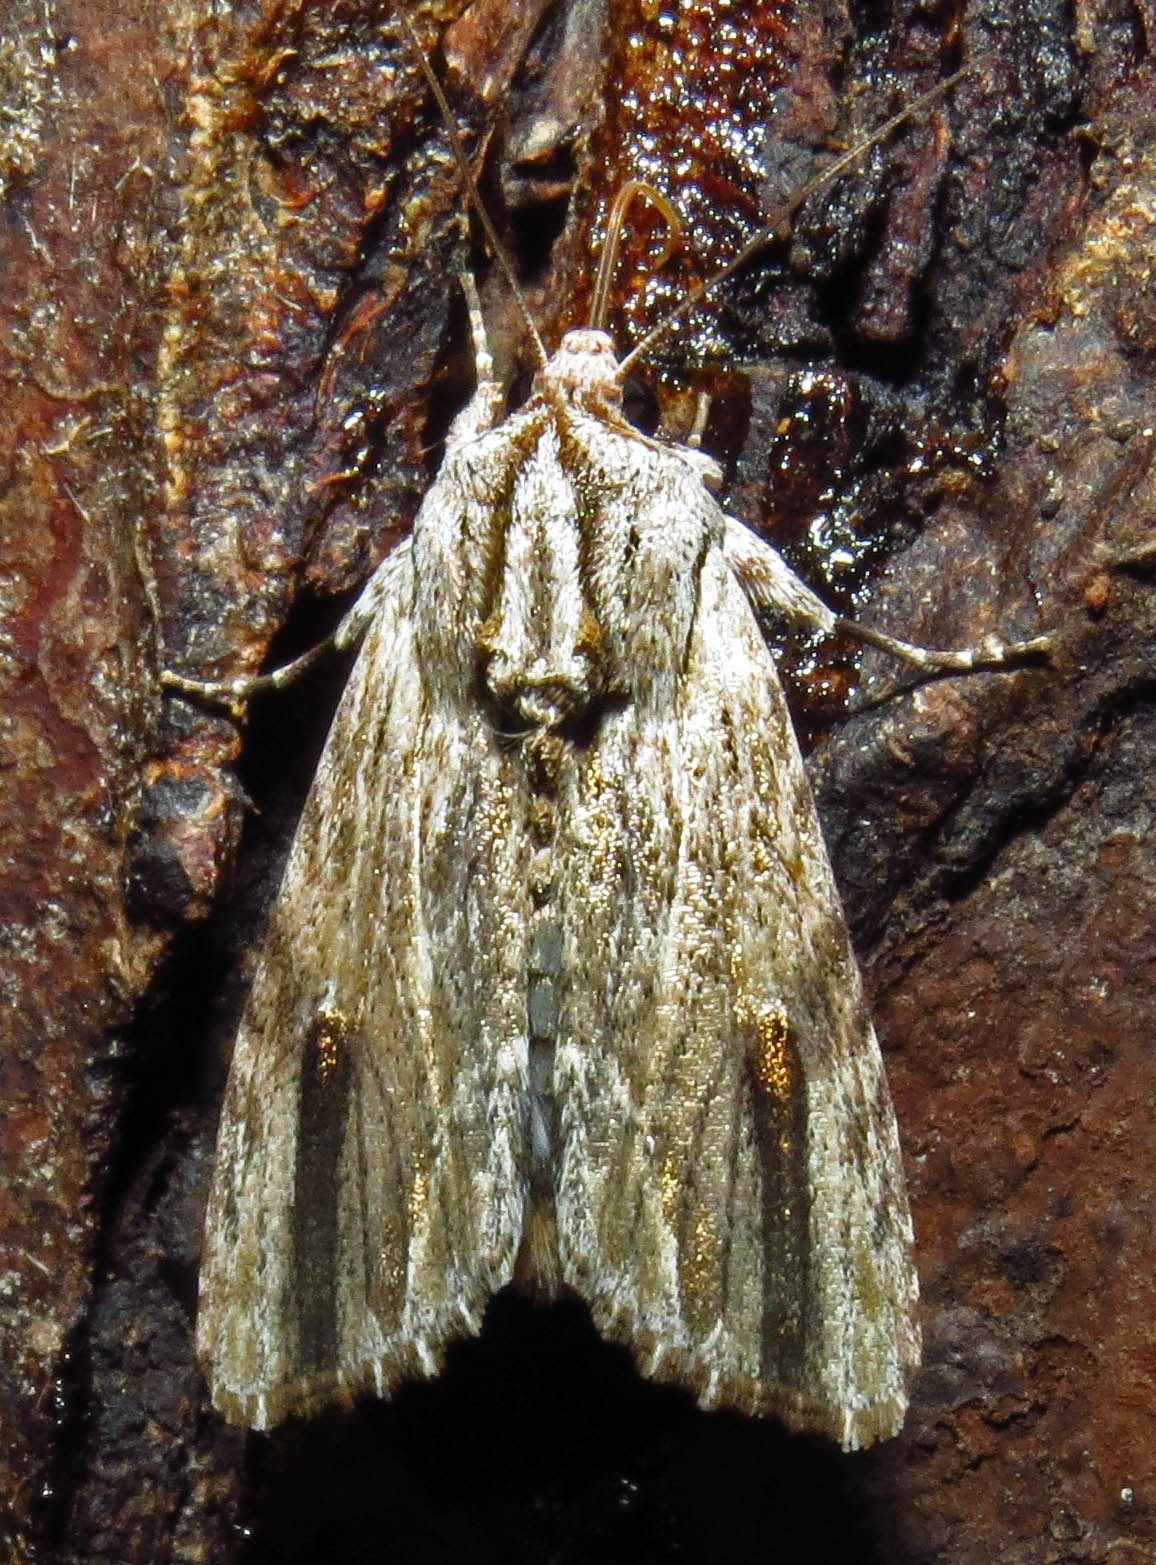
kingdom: Animalia
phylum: Arthropoda
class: Insecta
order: Lepidoptera
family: Noctuidae
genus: Spodoptera
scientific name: Spodoptera eridania
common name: Southern army worm
